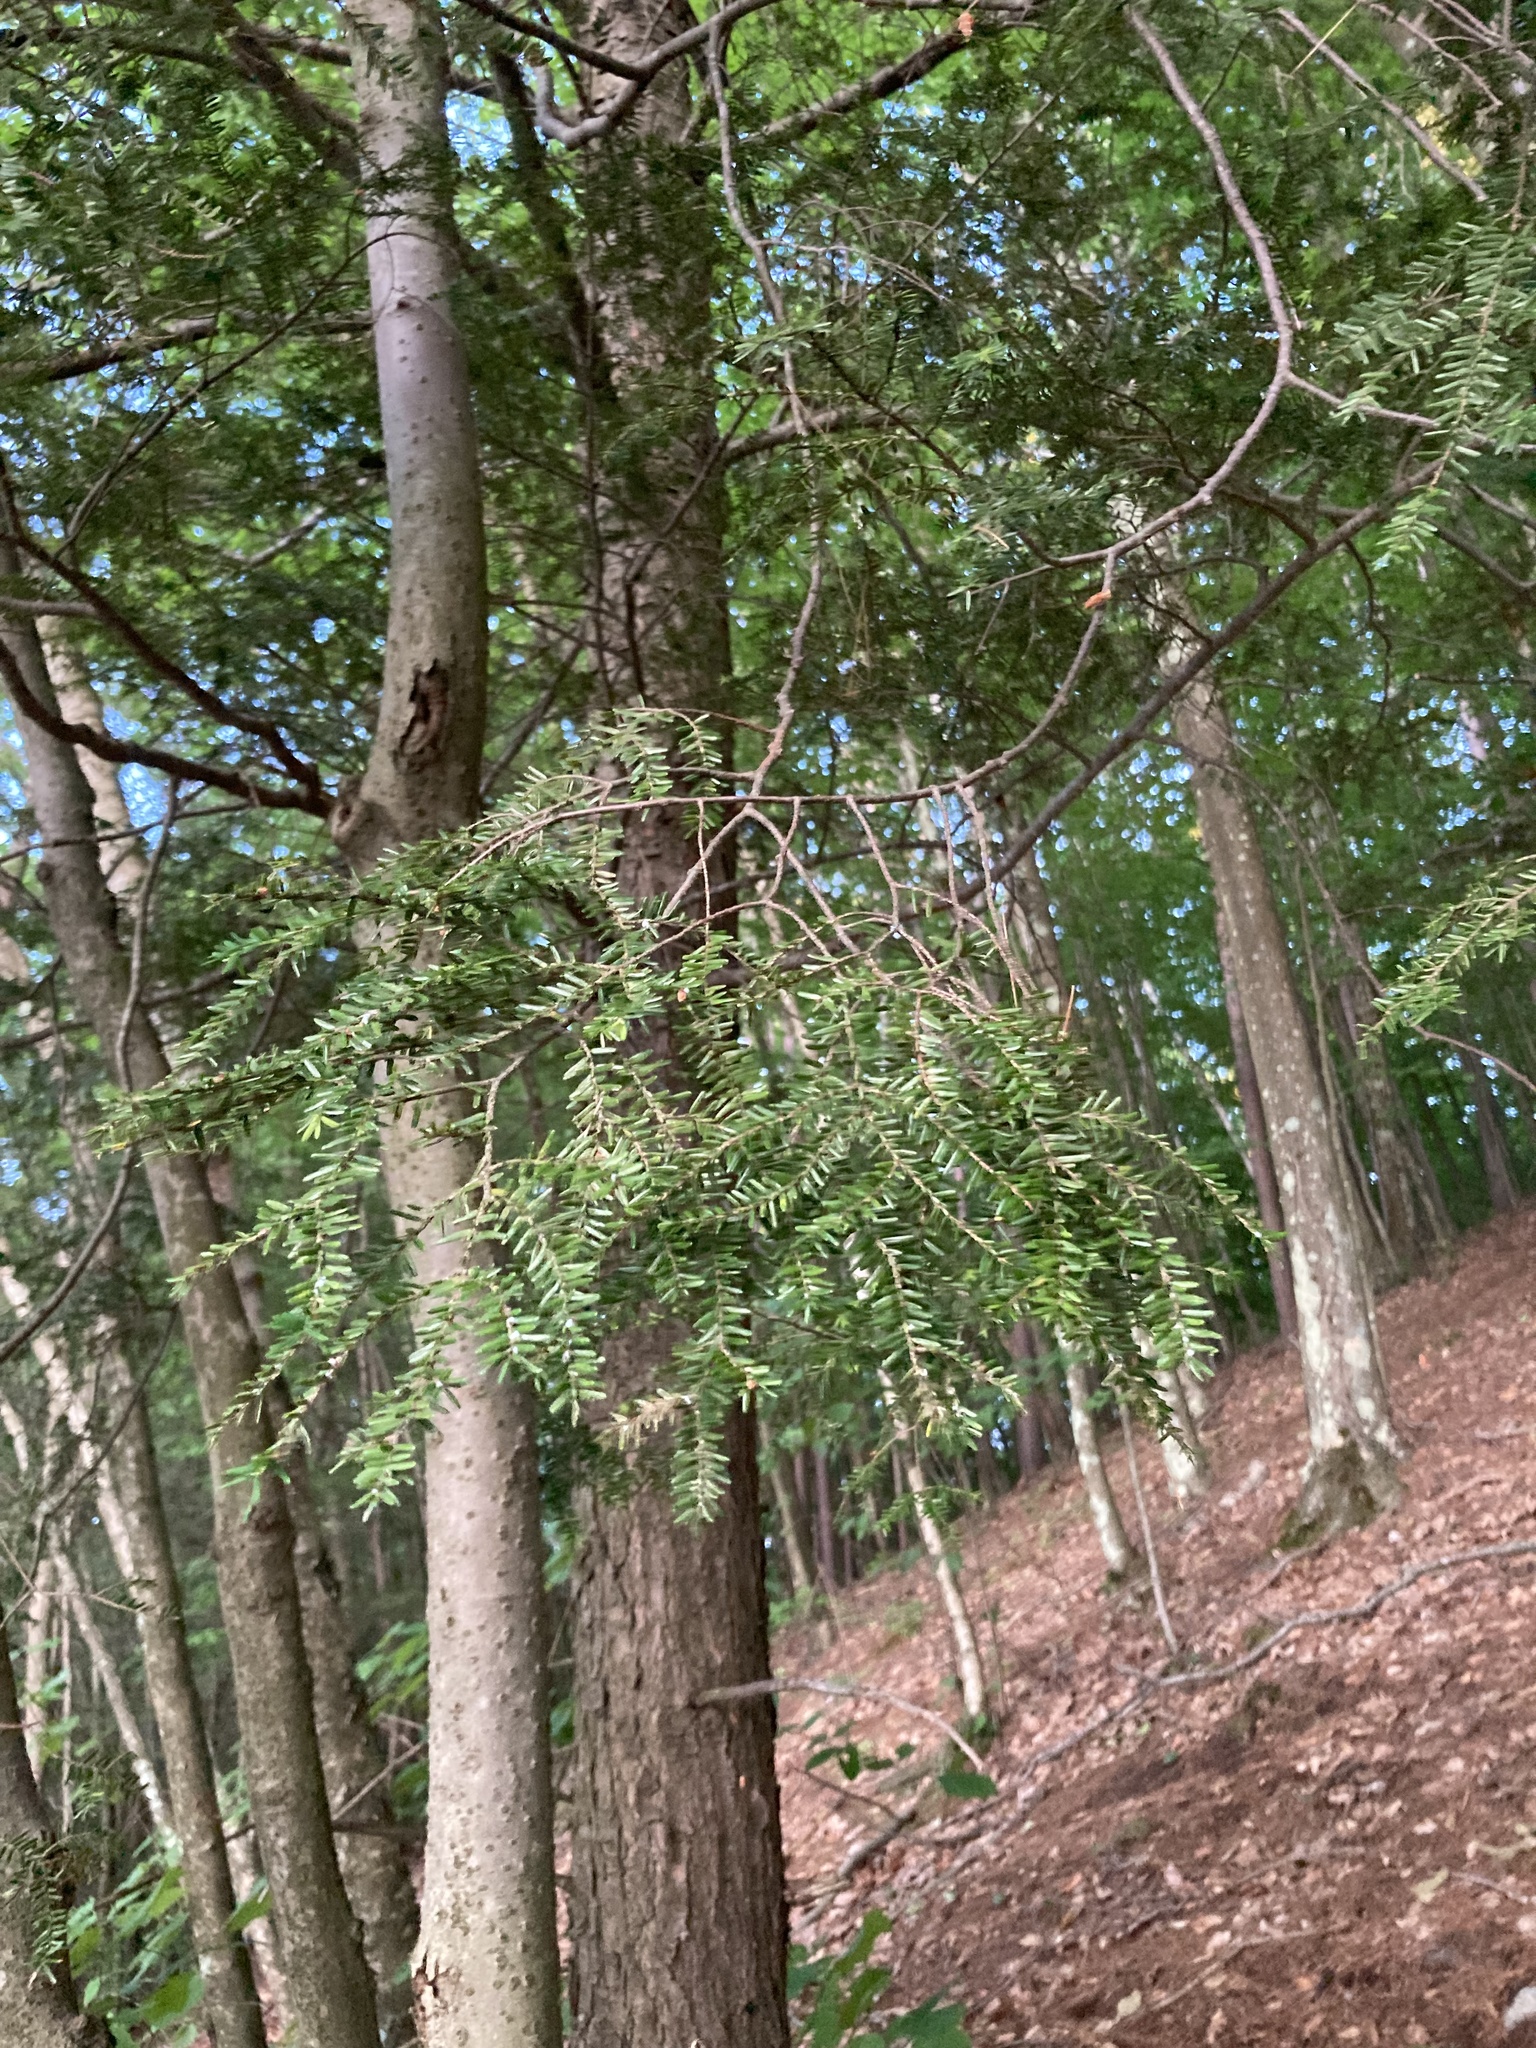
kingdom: Plantae
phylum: Tracheophyta
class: Pinopsida
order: Pinales
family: Pinaceae
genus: Tsuga
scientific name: Tsuga canadensis
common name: Eastern hemlock
